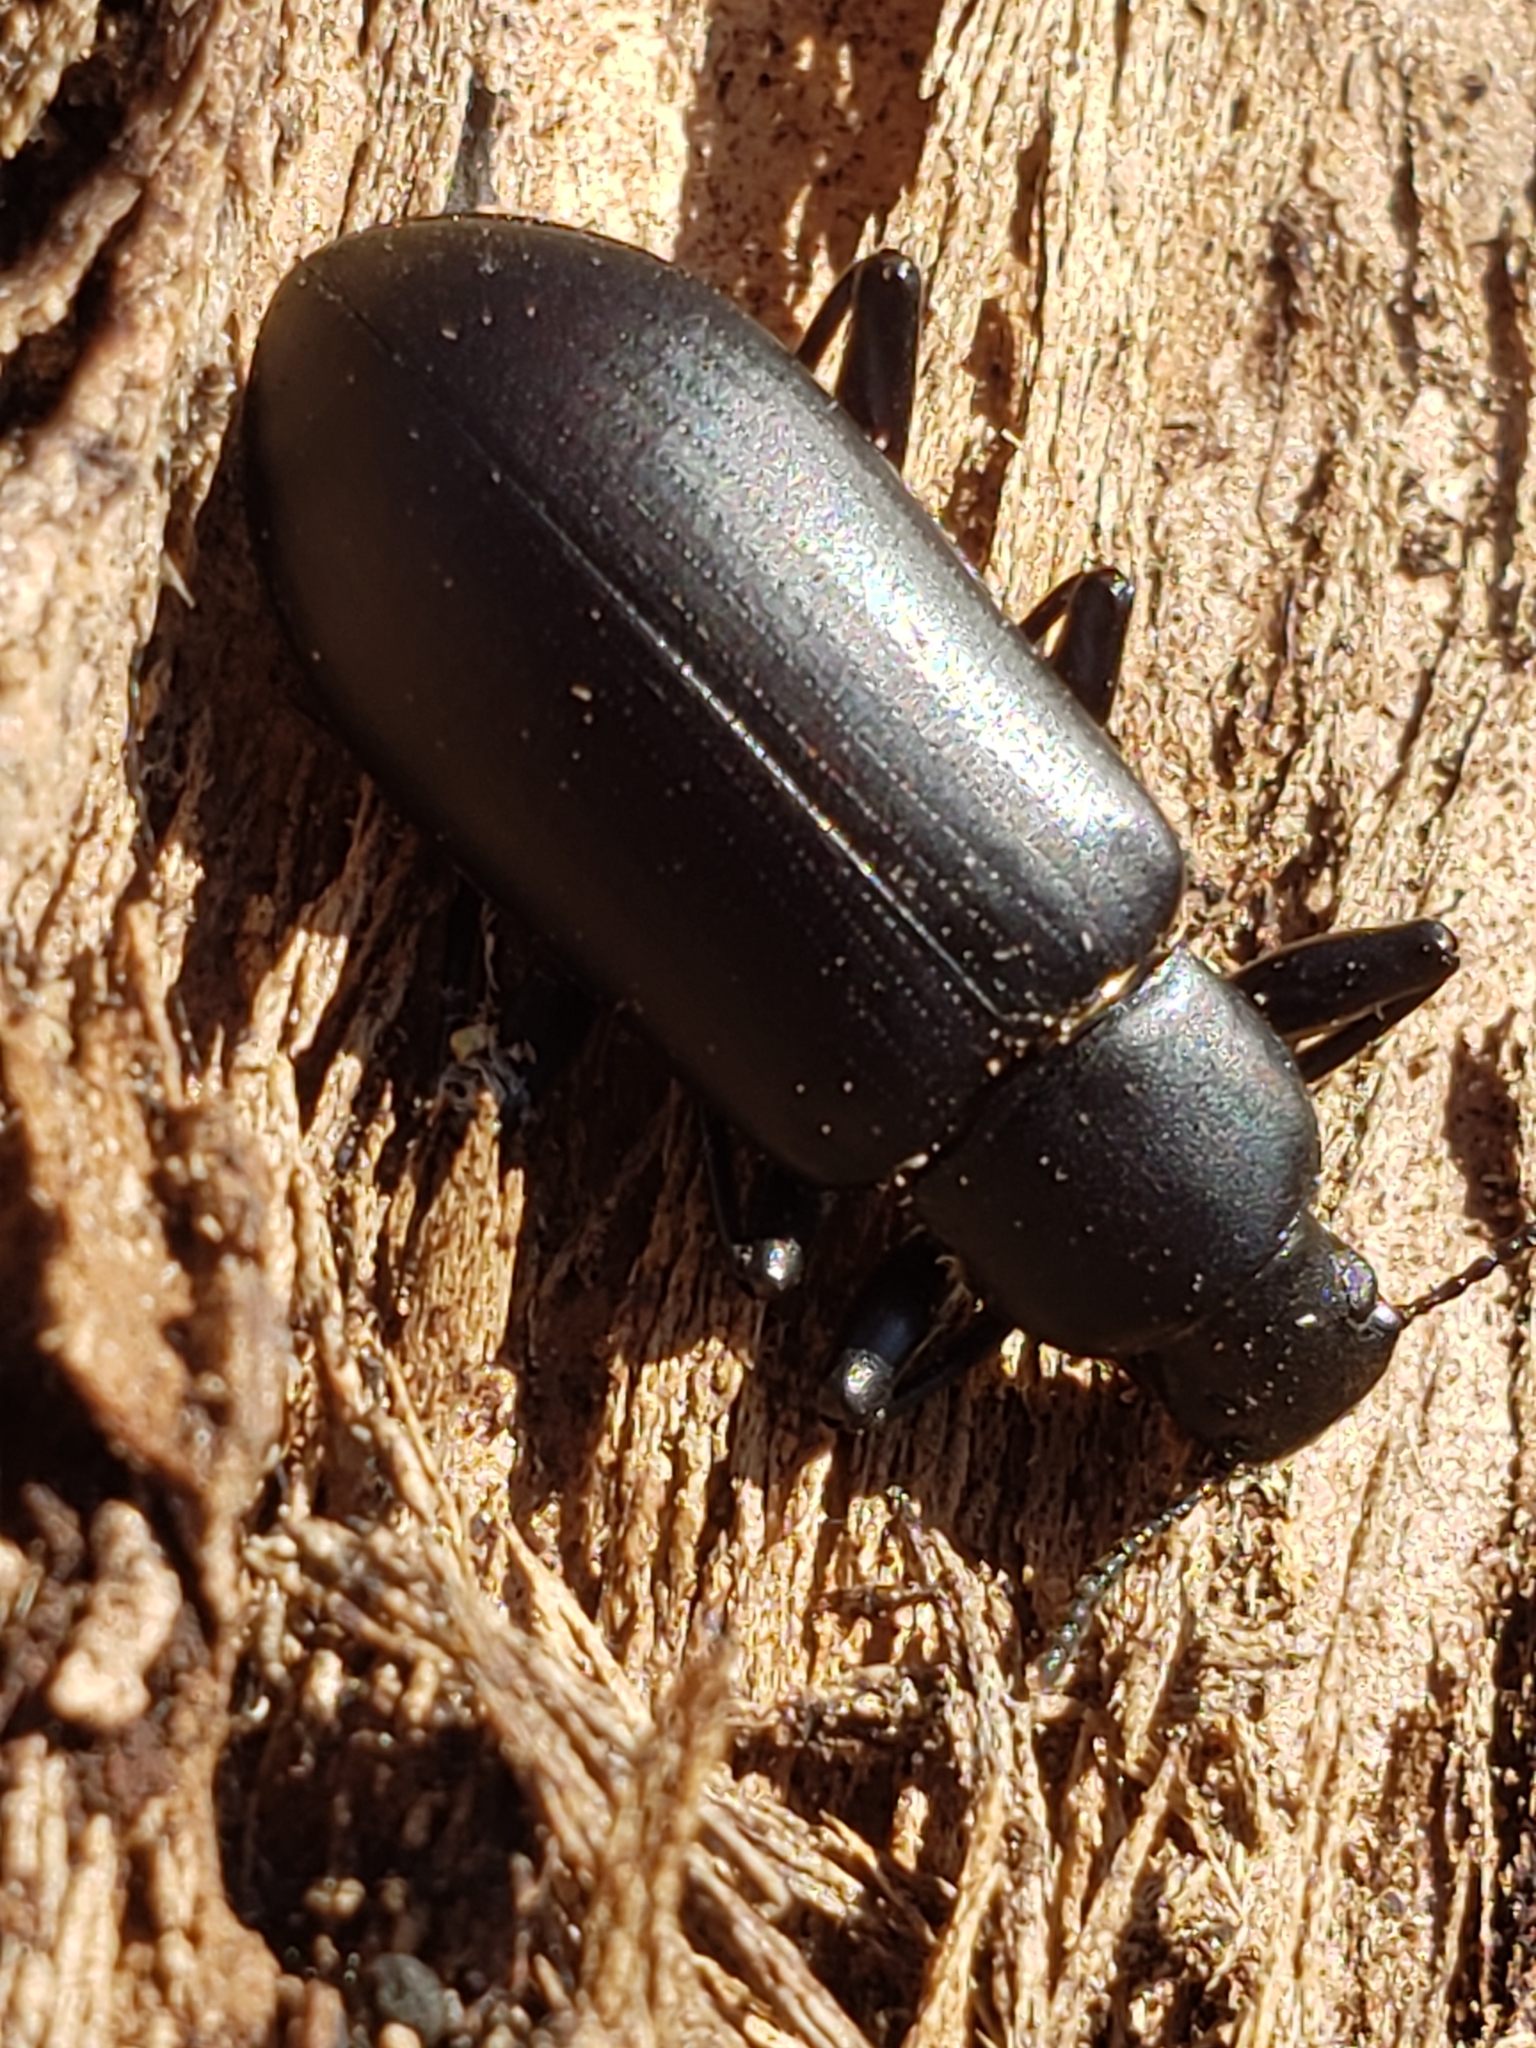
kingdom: Animalia
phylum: Arthropoda
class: Insecta
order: Coleoptera
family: Tenebrionidae
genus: Alobates
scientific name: Alobates
